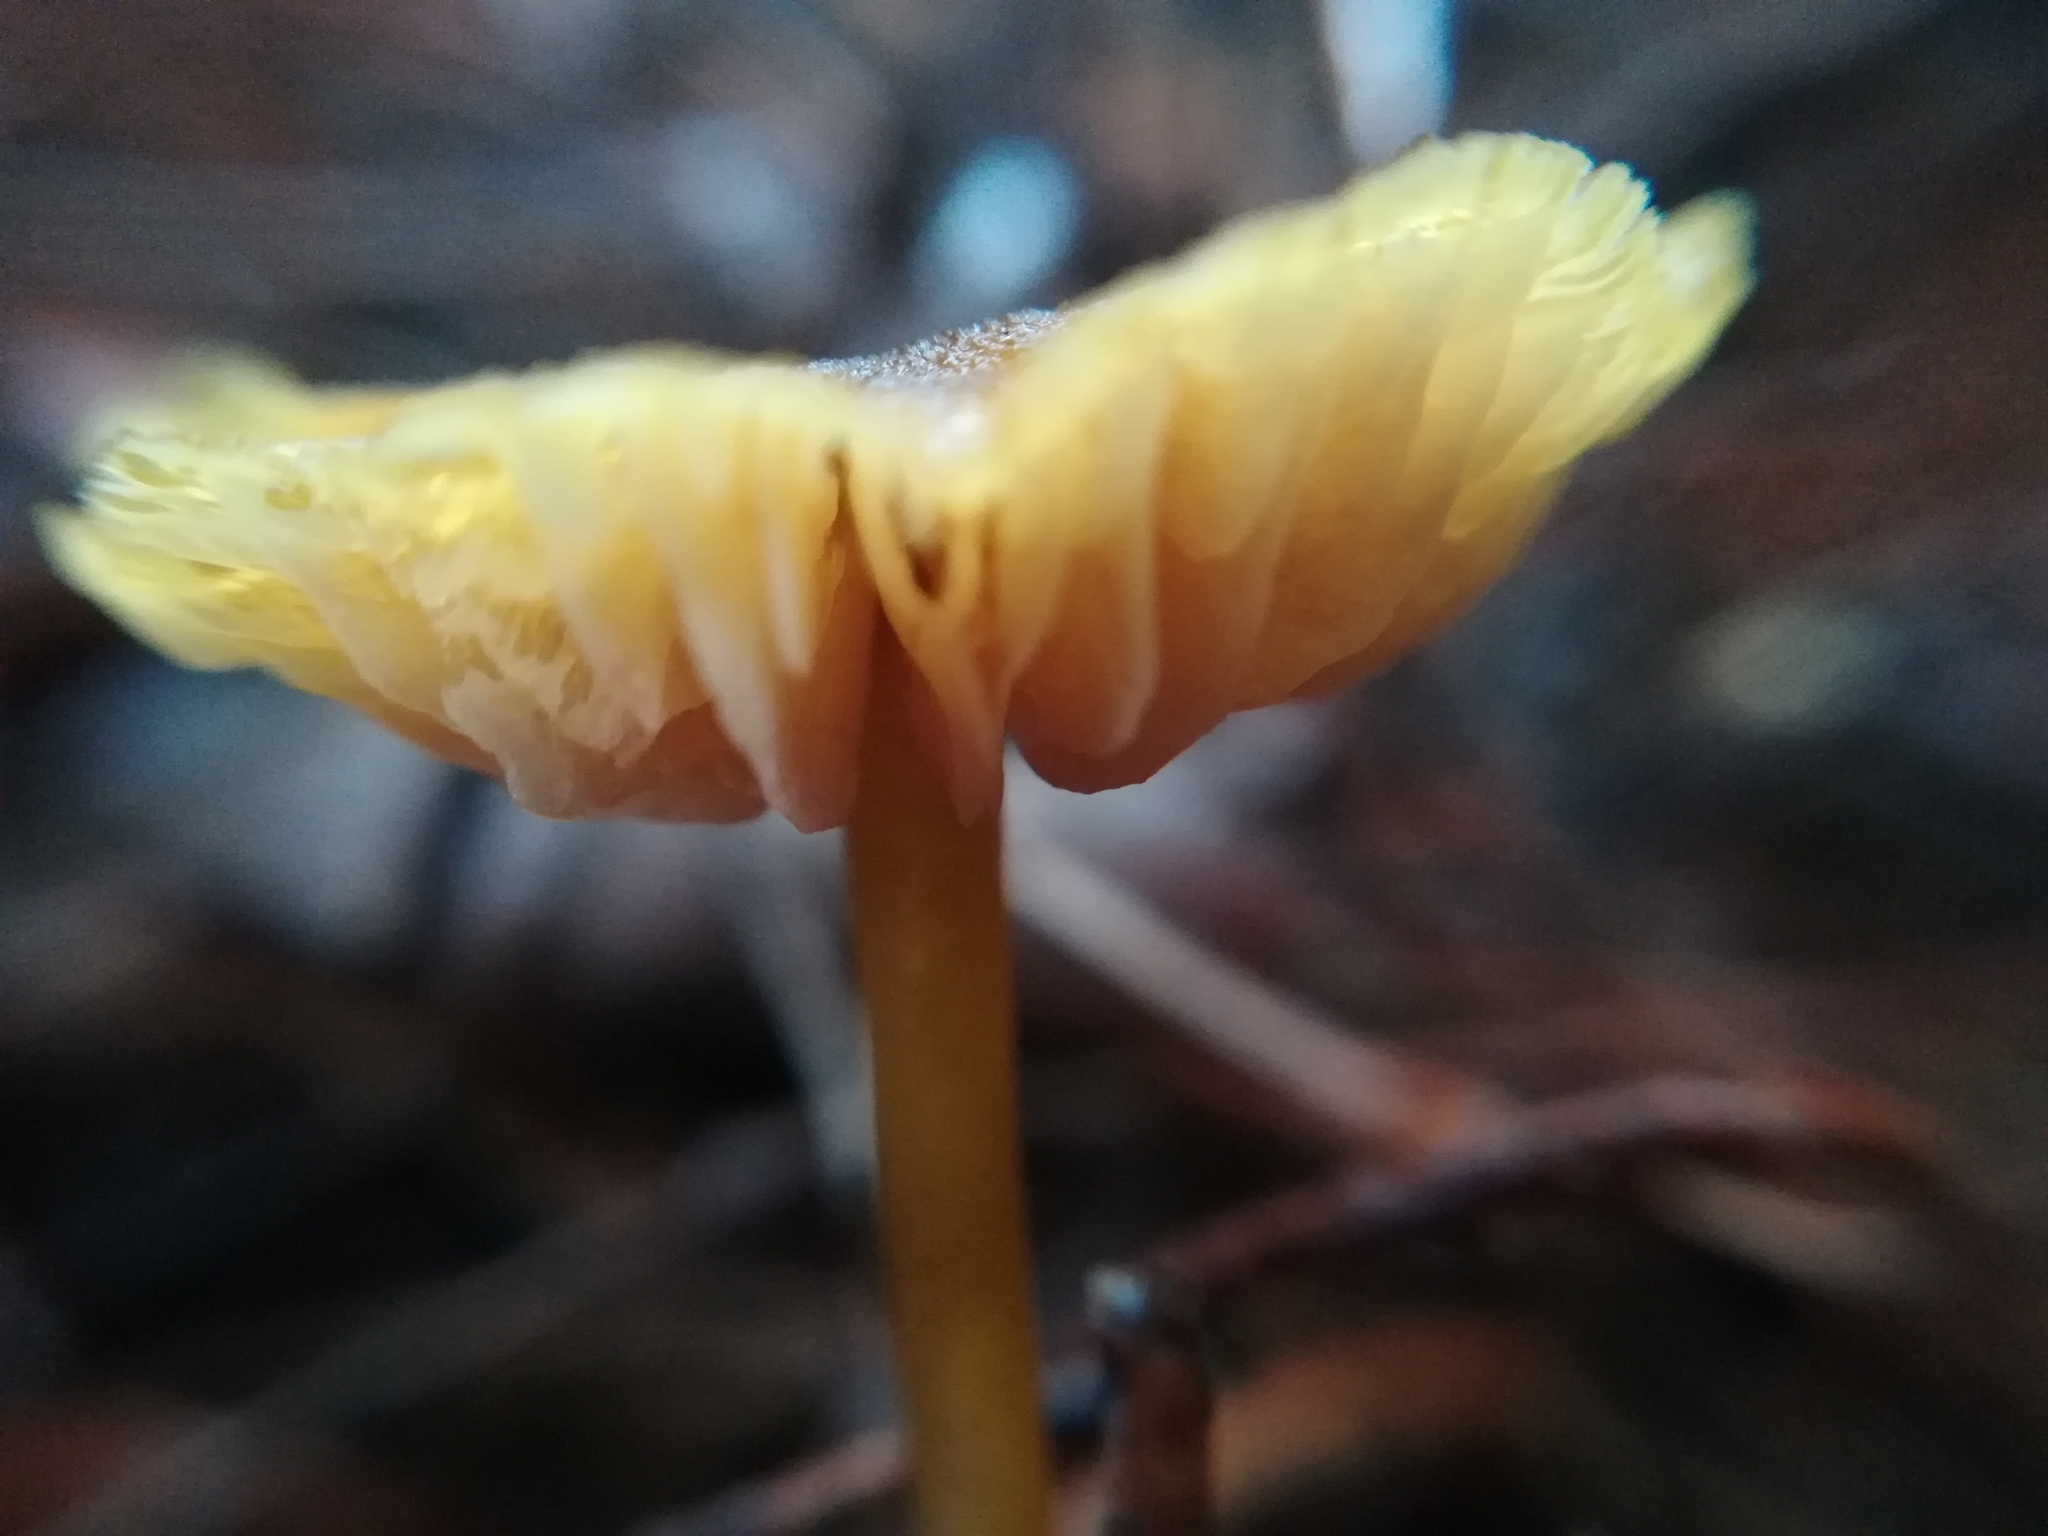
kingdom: Fungi
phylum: Basidiomycota
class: Agaricomycetes
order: Agaricales
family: Entolomataceae
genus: Entoloma
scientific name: Entoloma readiae
